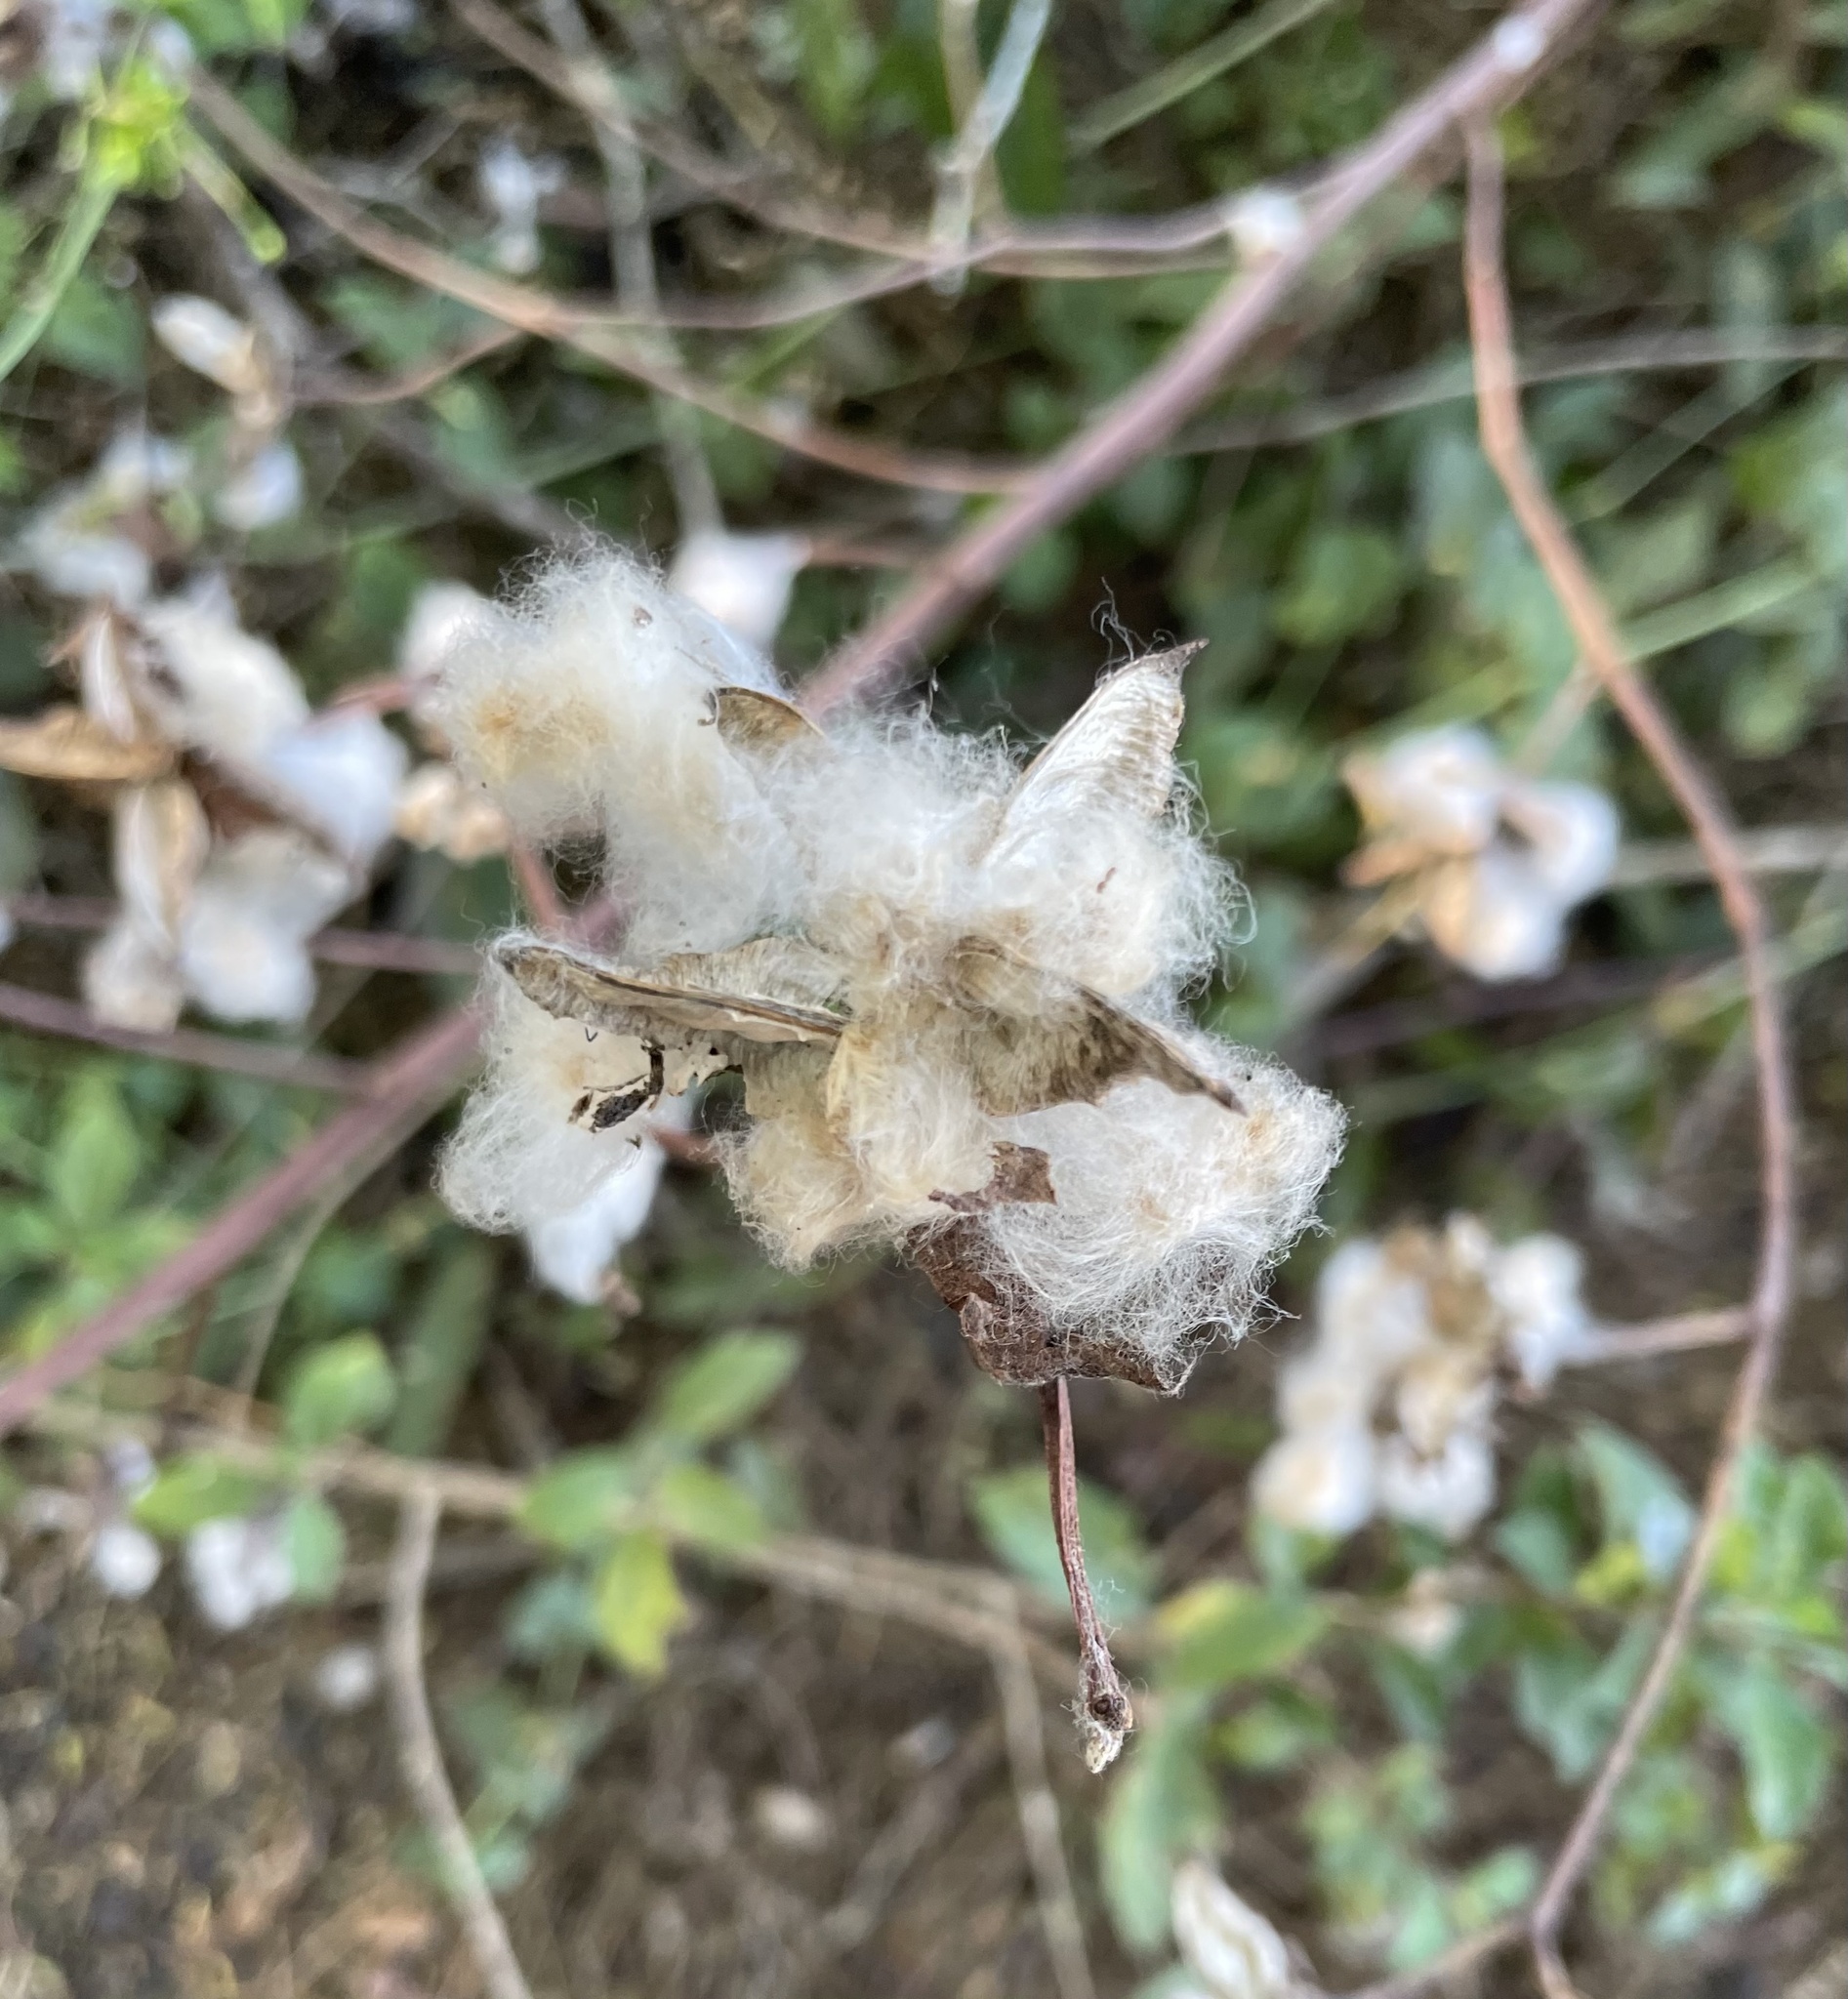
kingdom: Plantae
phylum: Tracheophyta
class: Magnoliopsida
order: Malvales
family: Malvaceae
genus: Gossypium
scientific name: Gossypium darwinii
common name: Darwin's cotton
